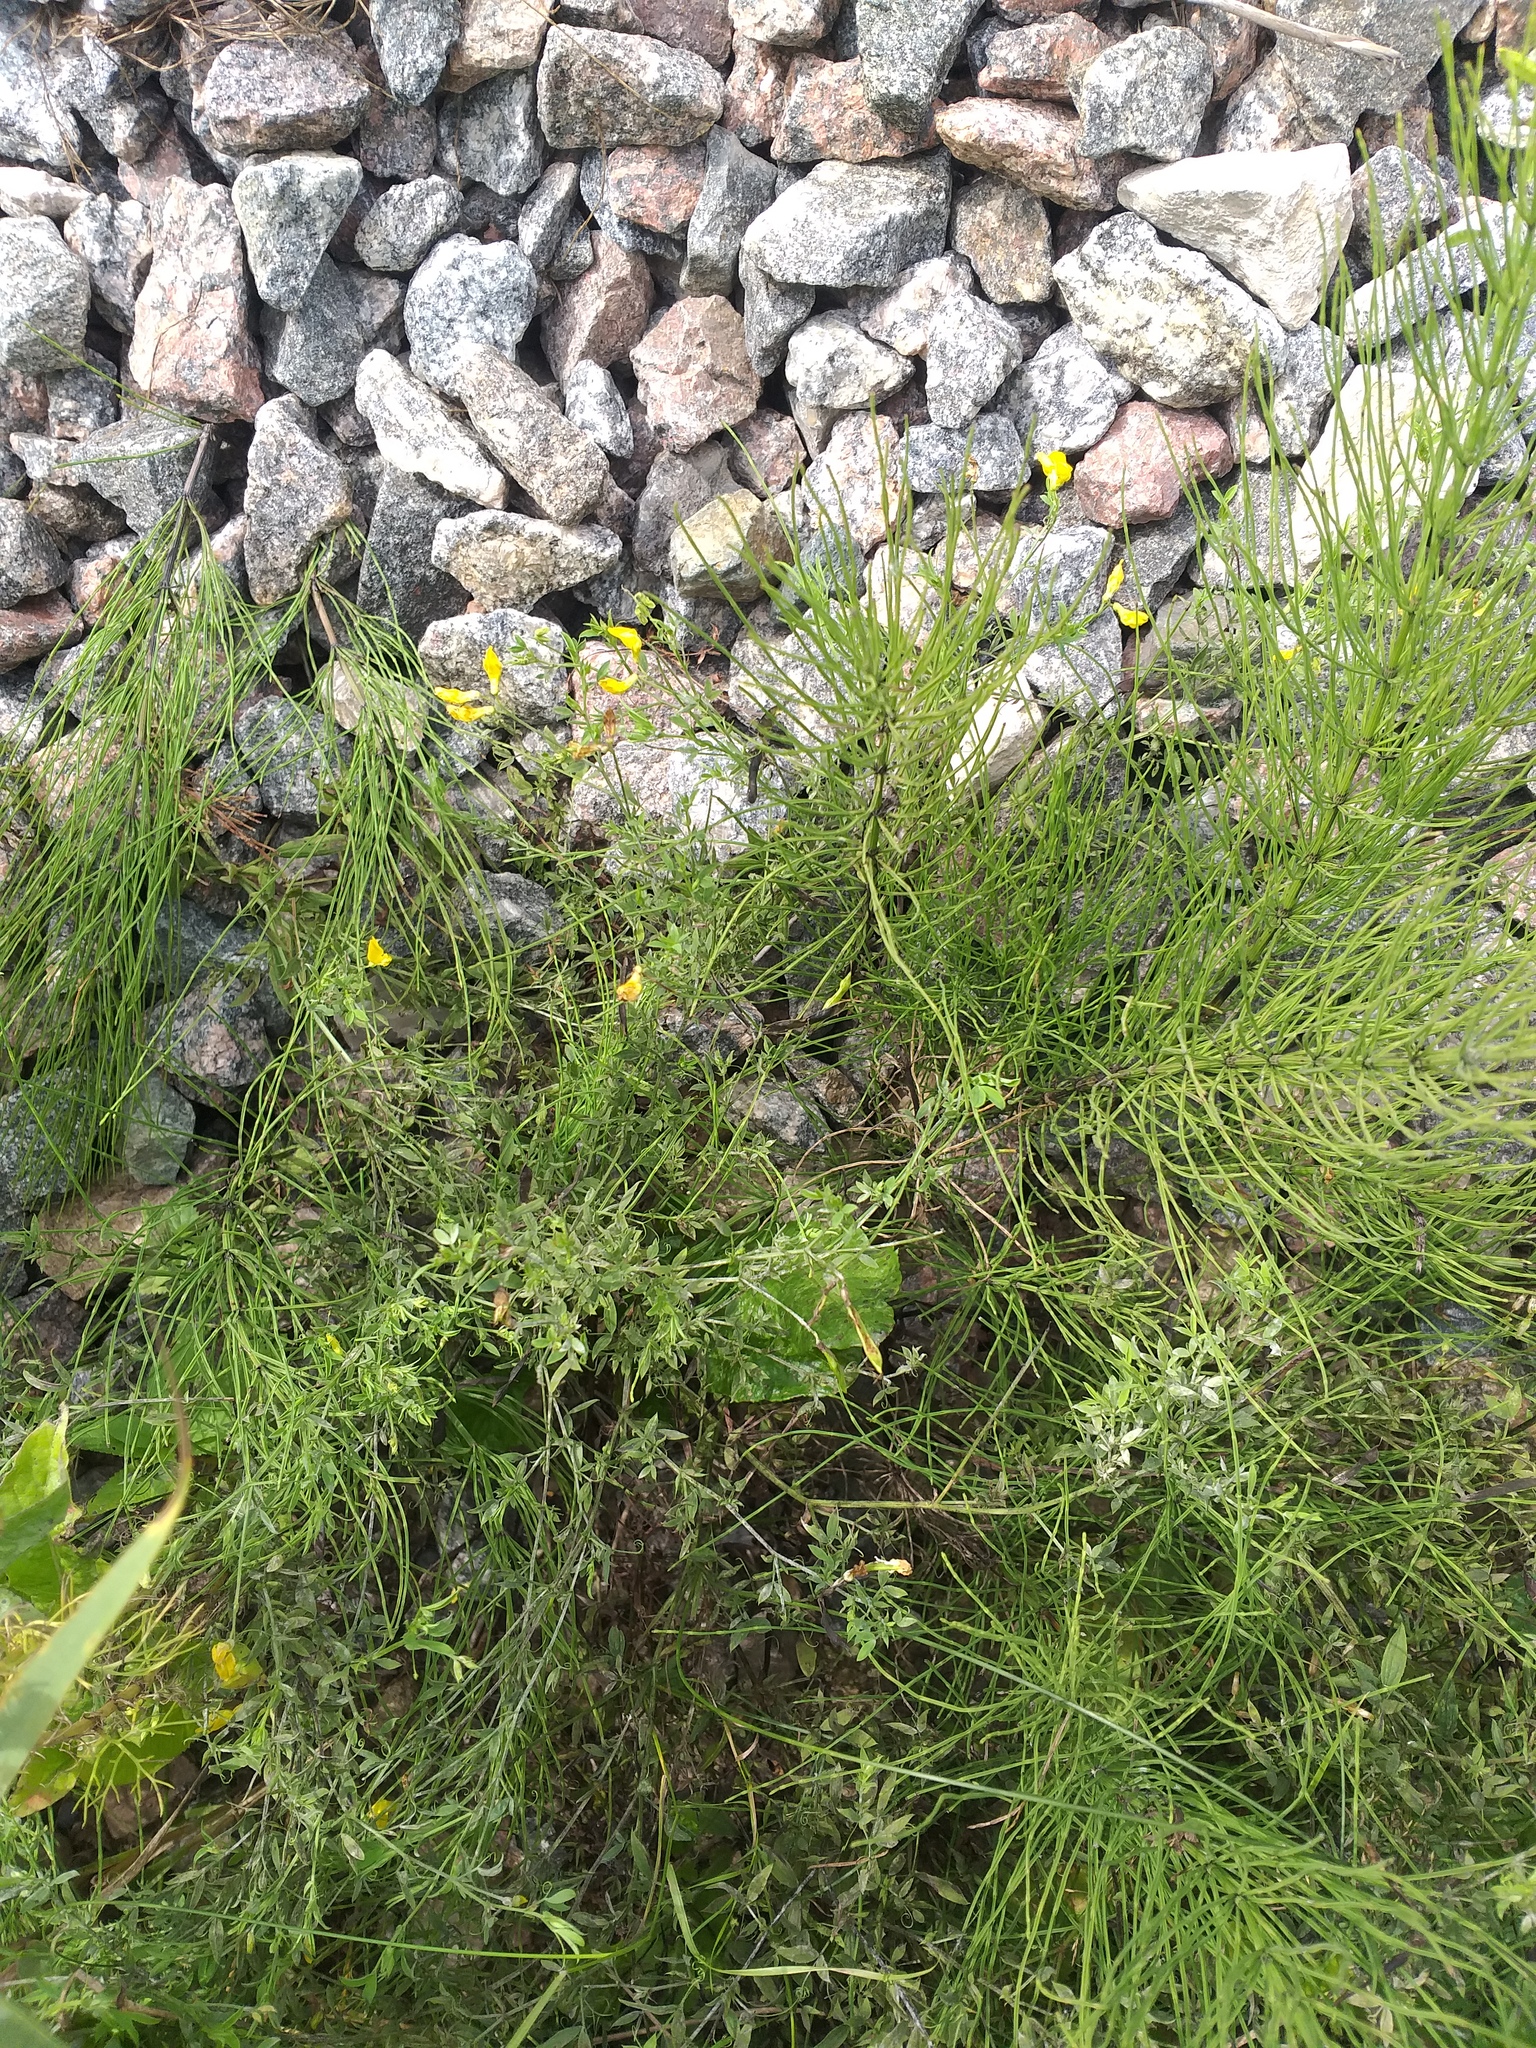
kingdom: Plantae
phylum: Tracheophyta
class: Magnoliopsida
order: Fabales
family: Fabaceae
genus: Lathyrus
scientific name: Lathyrus pratensis
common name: Meadow vetchling
